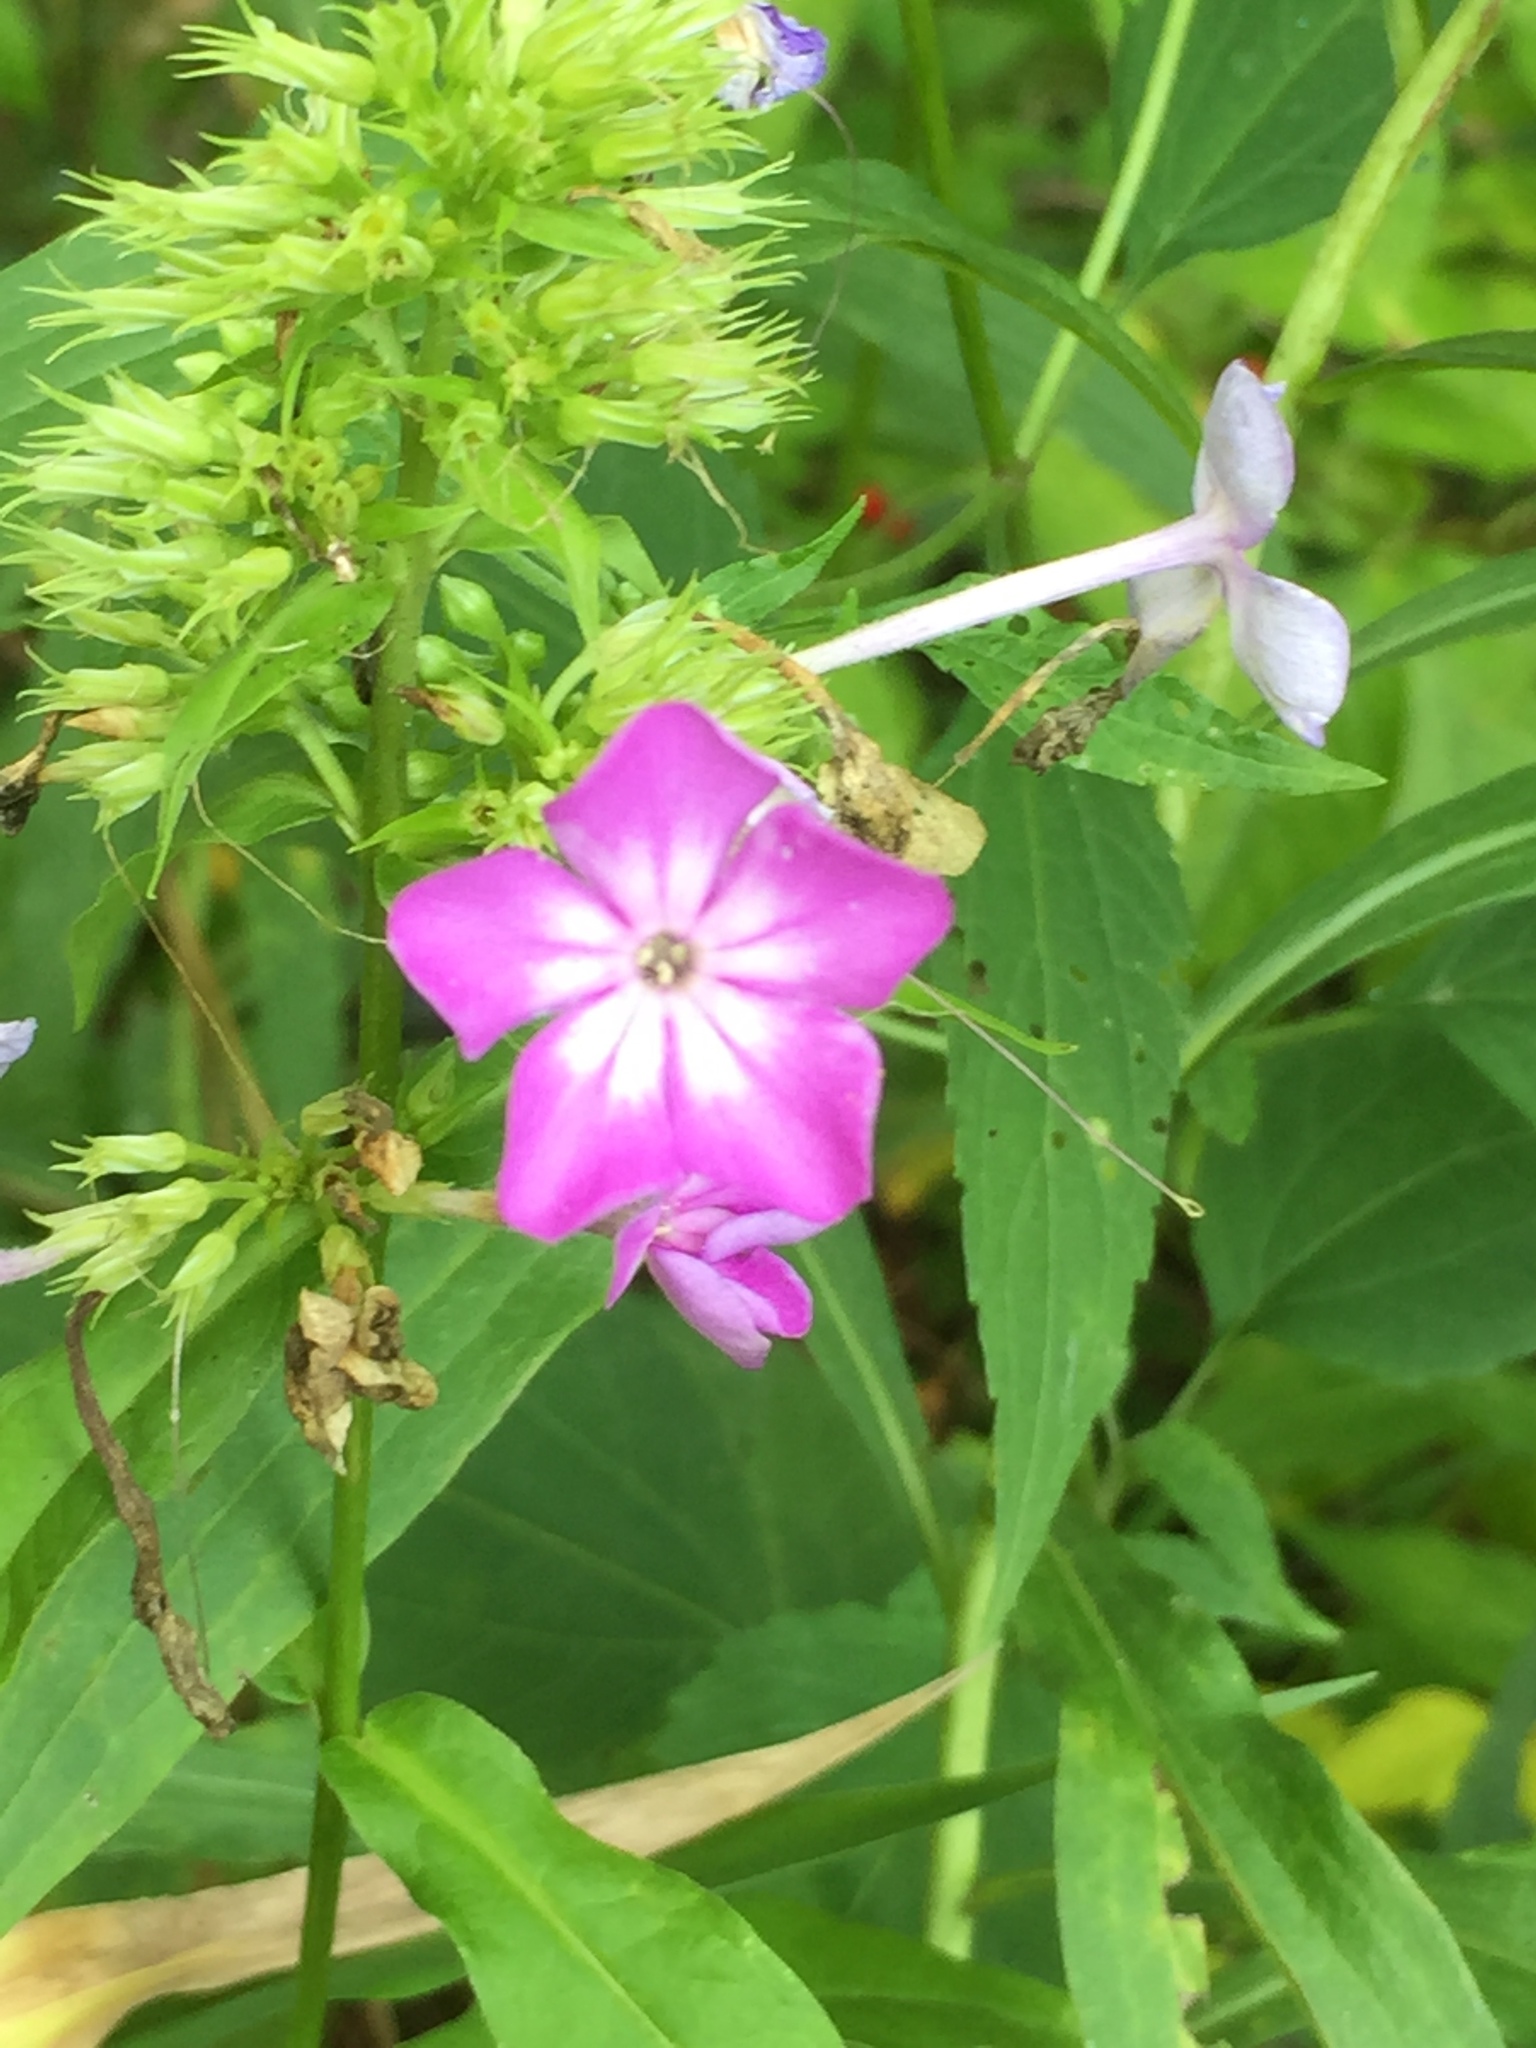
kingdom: Plantae
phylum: Tracheophyta
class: Magnoliopsida
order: Ericales
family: Polemoniaceae
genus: Phlox
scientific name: Phlox paniculata
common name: Fall phlox
